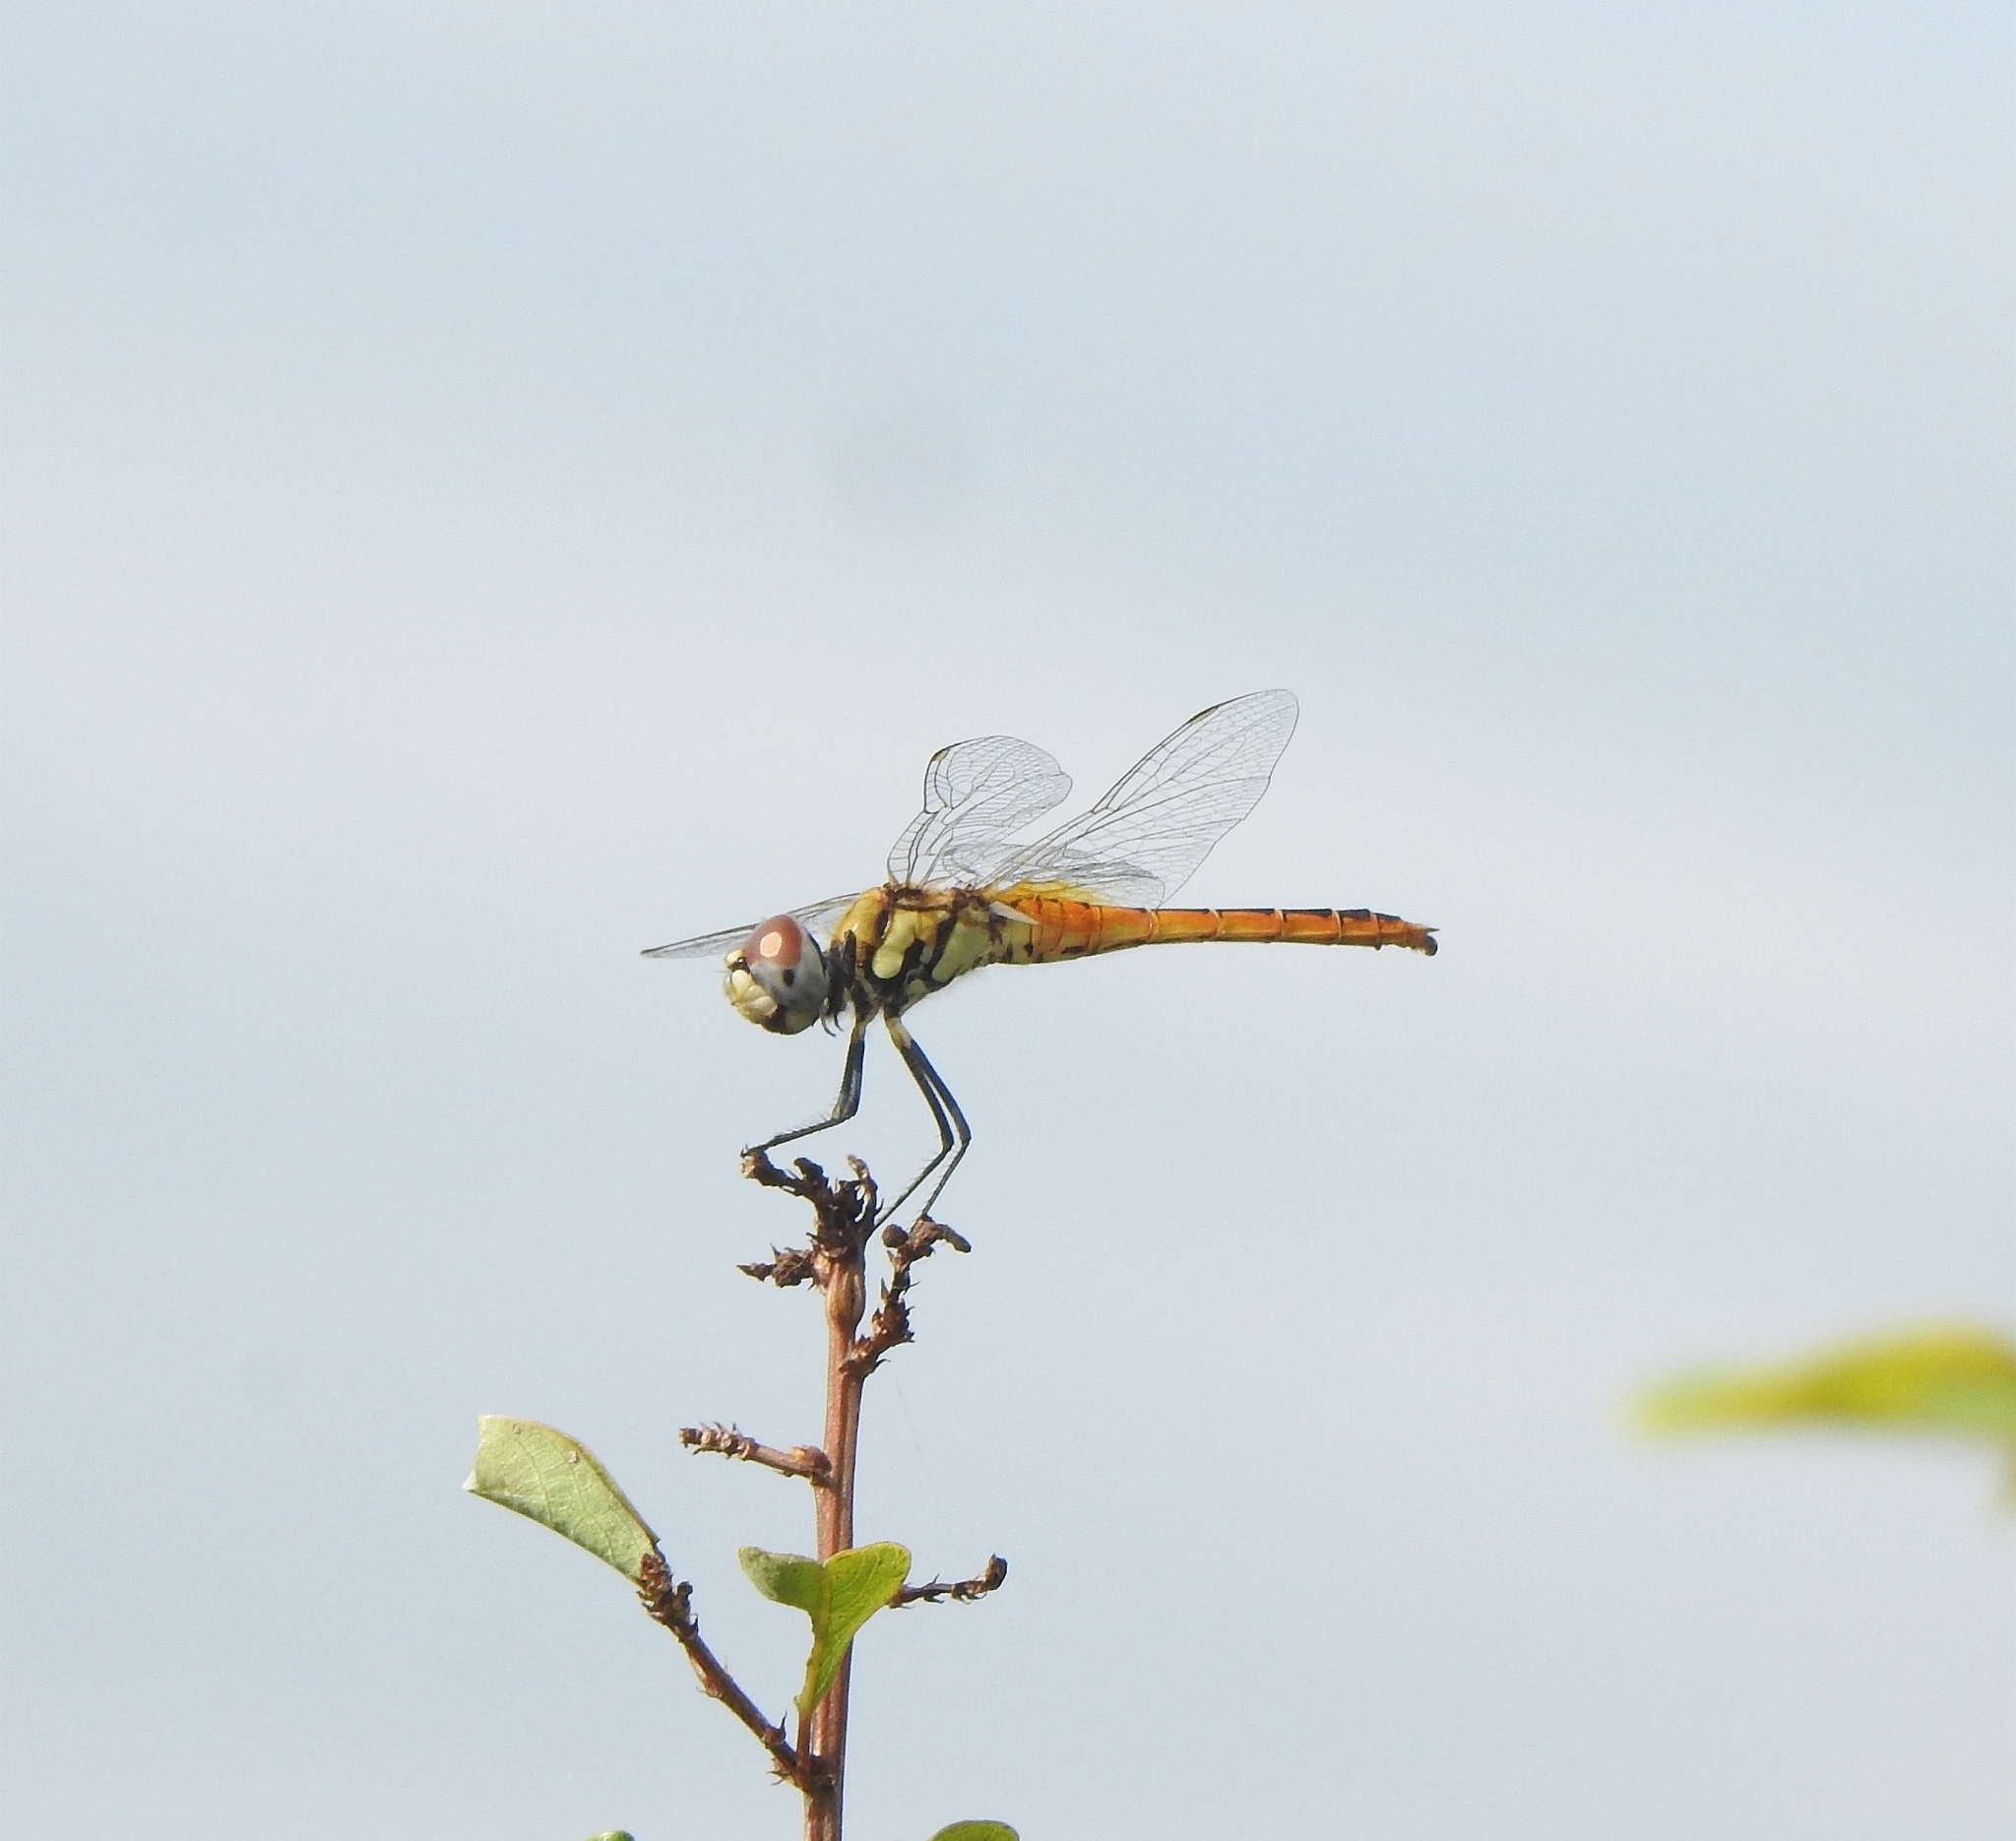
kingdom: Animalia
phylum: Arthropoda
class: Insecta
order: Odonata
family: Libellulidae
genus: Macrodiplax
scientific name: Macrodiplax cora
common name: Coastal glider
